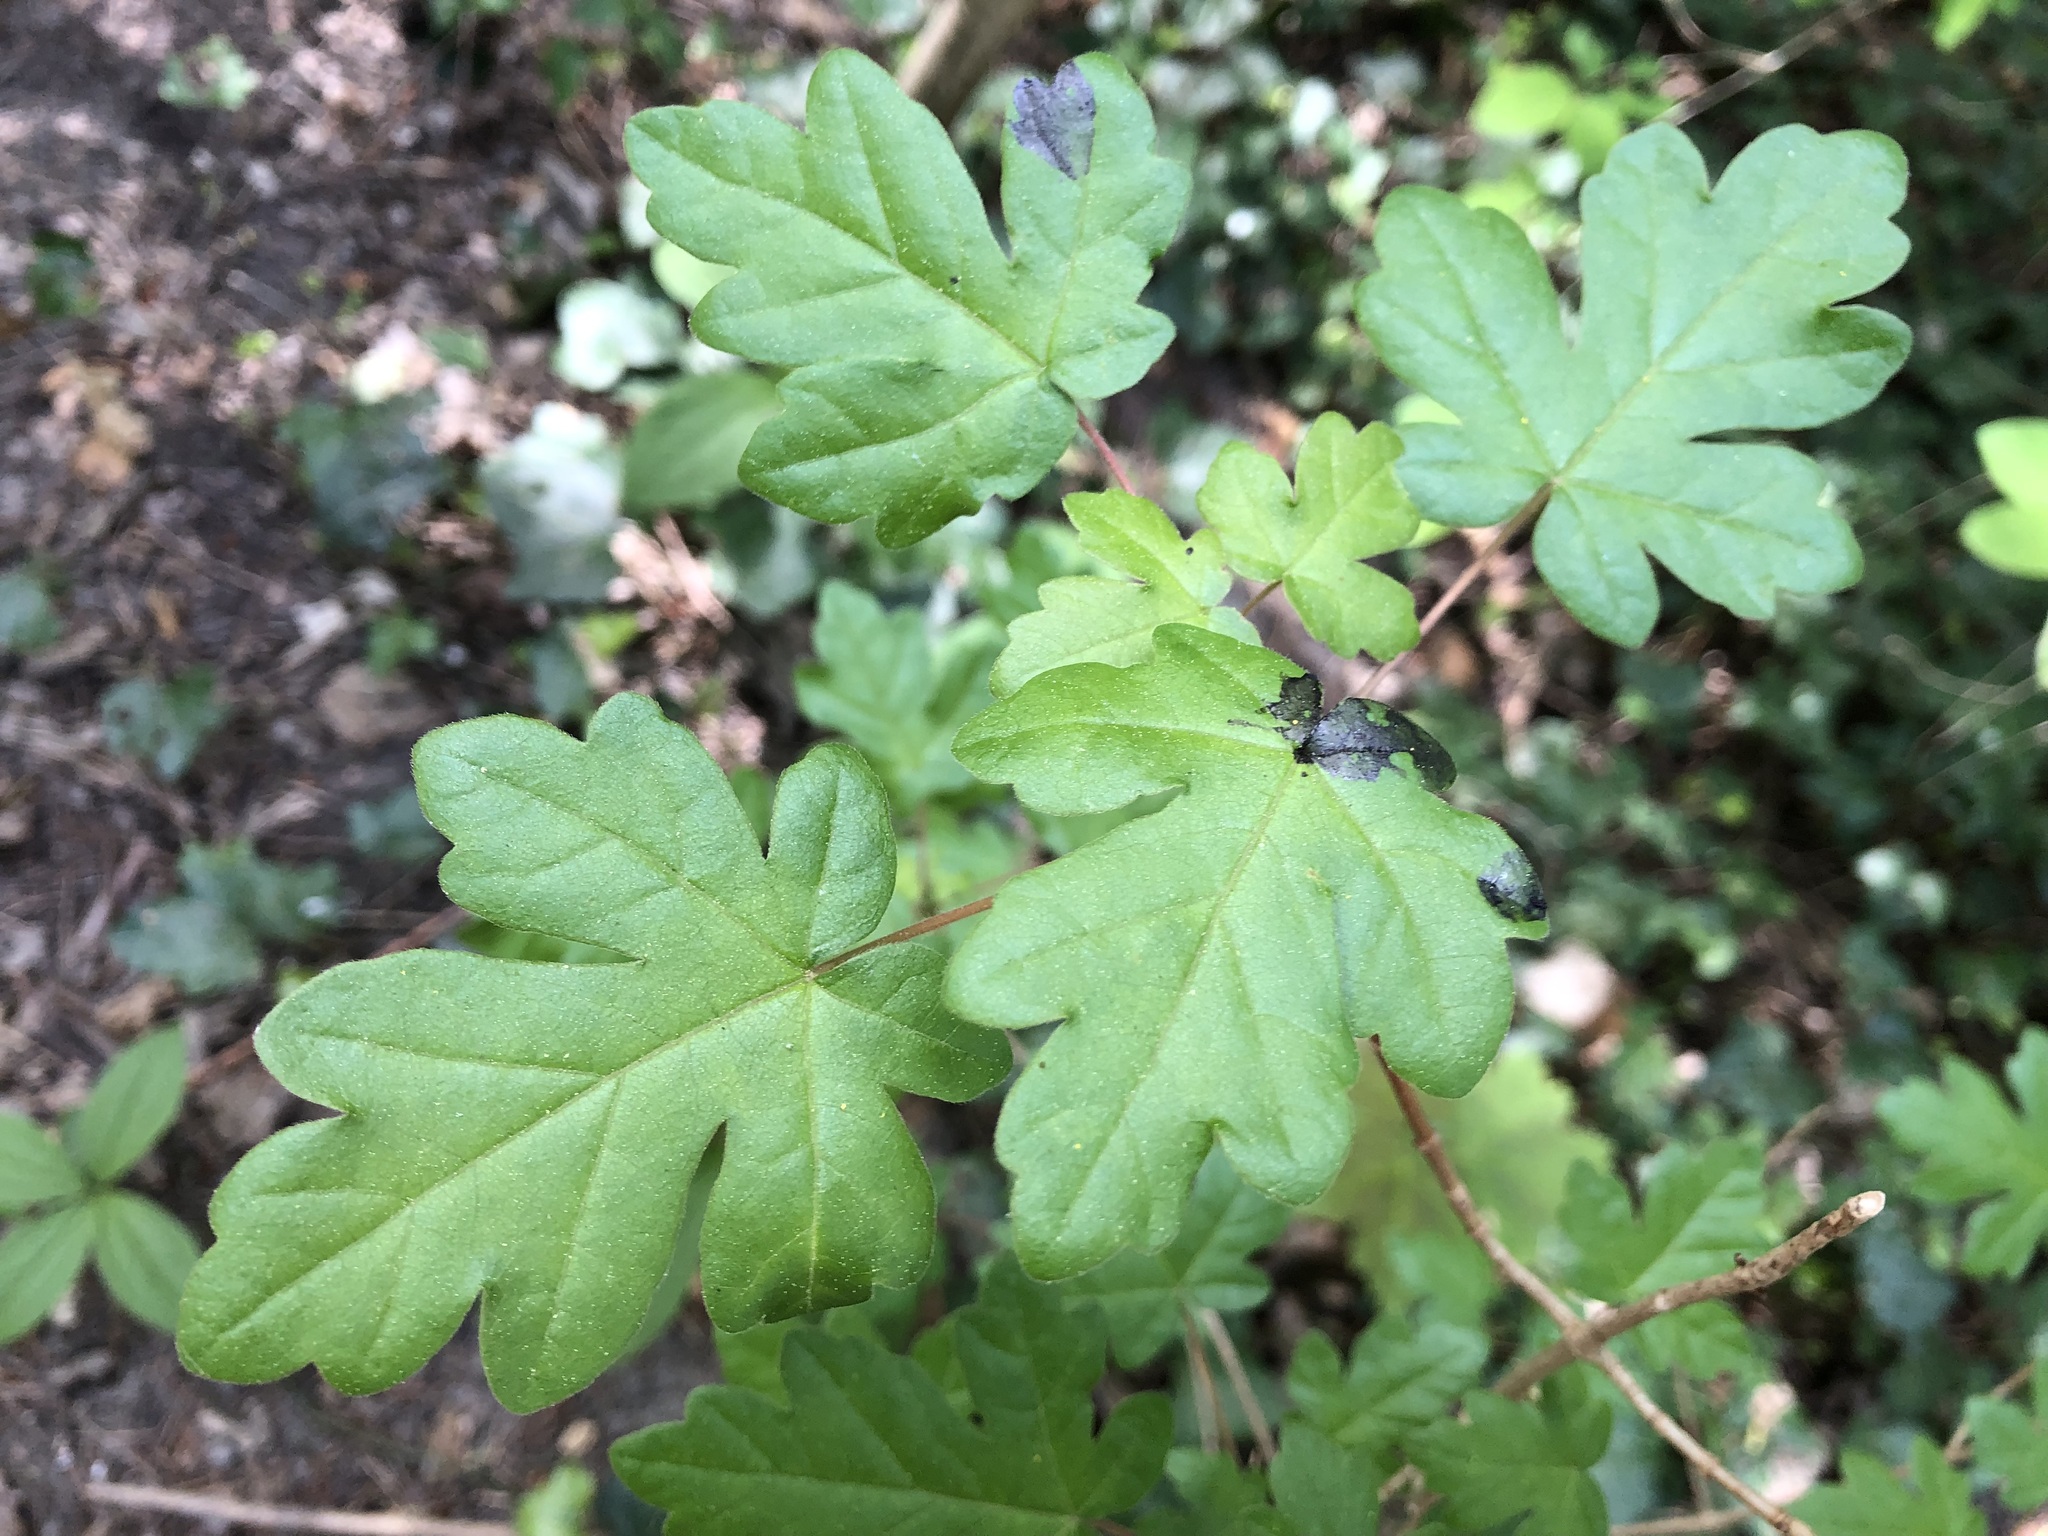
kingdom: Plantae
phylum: Tracheophyta
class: Magnoliopsida
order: Sapindales
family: Sapindaceae
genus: Acer
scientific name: Acer campestre
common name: Field maple
